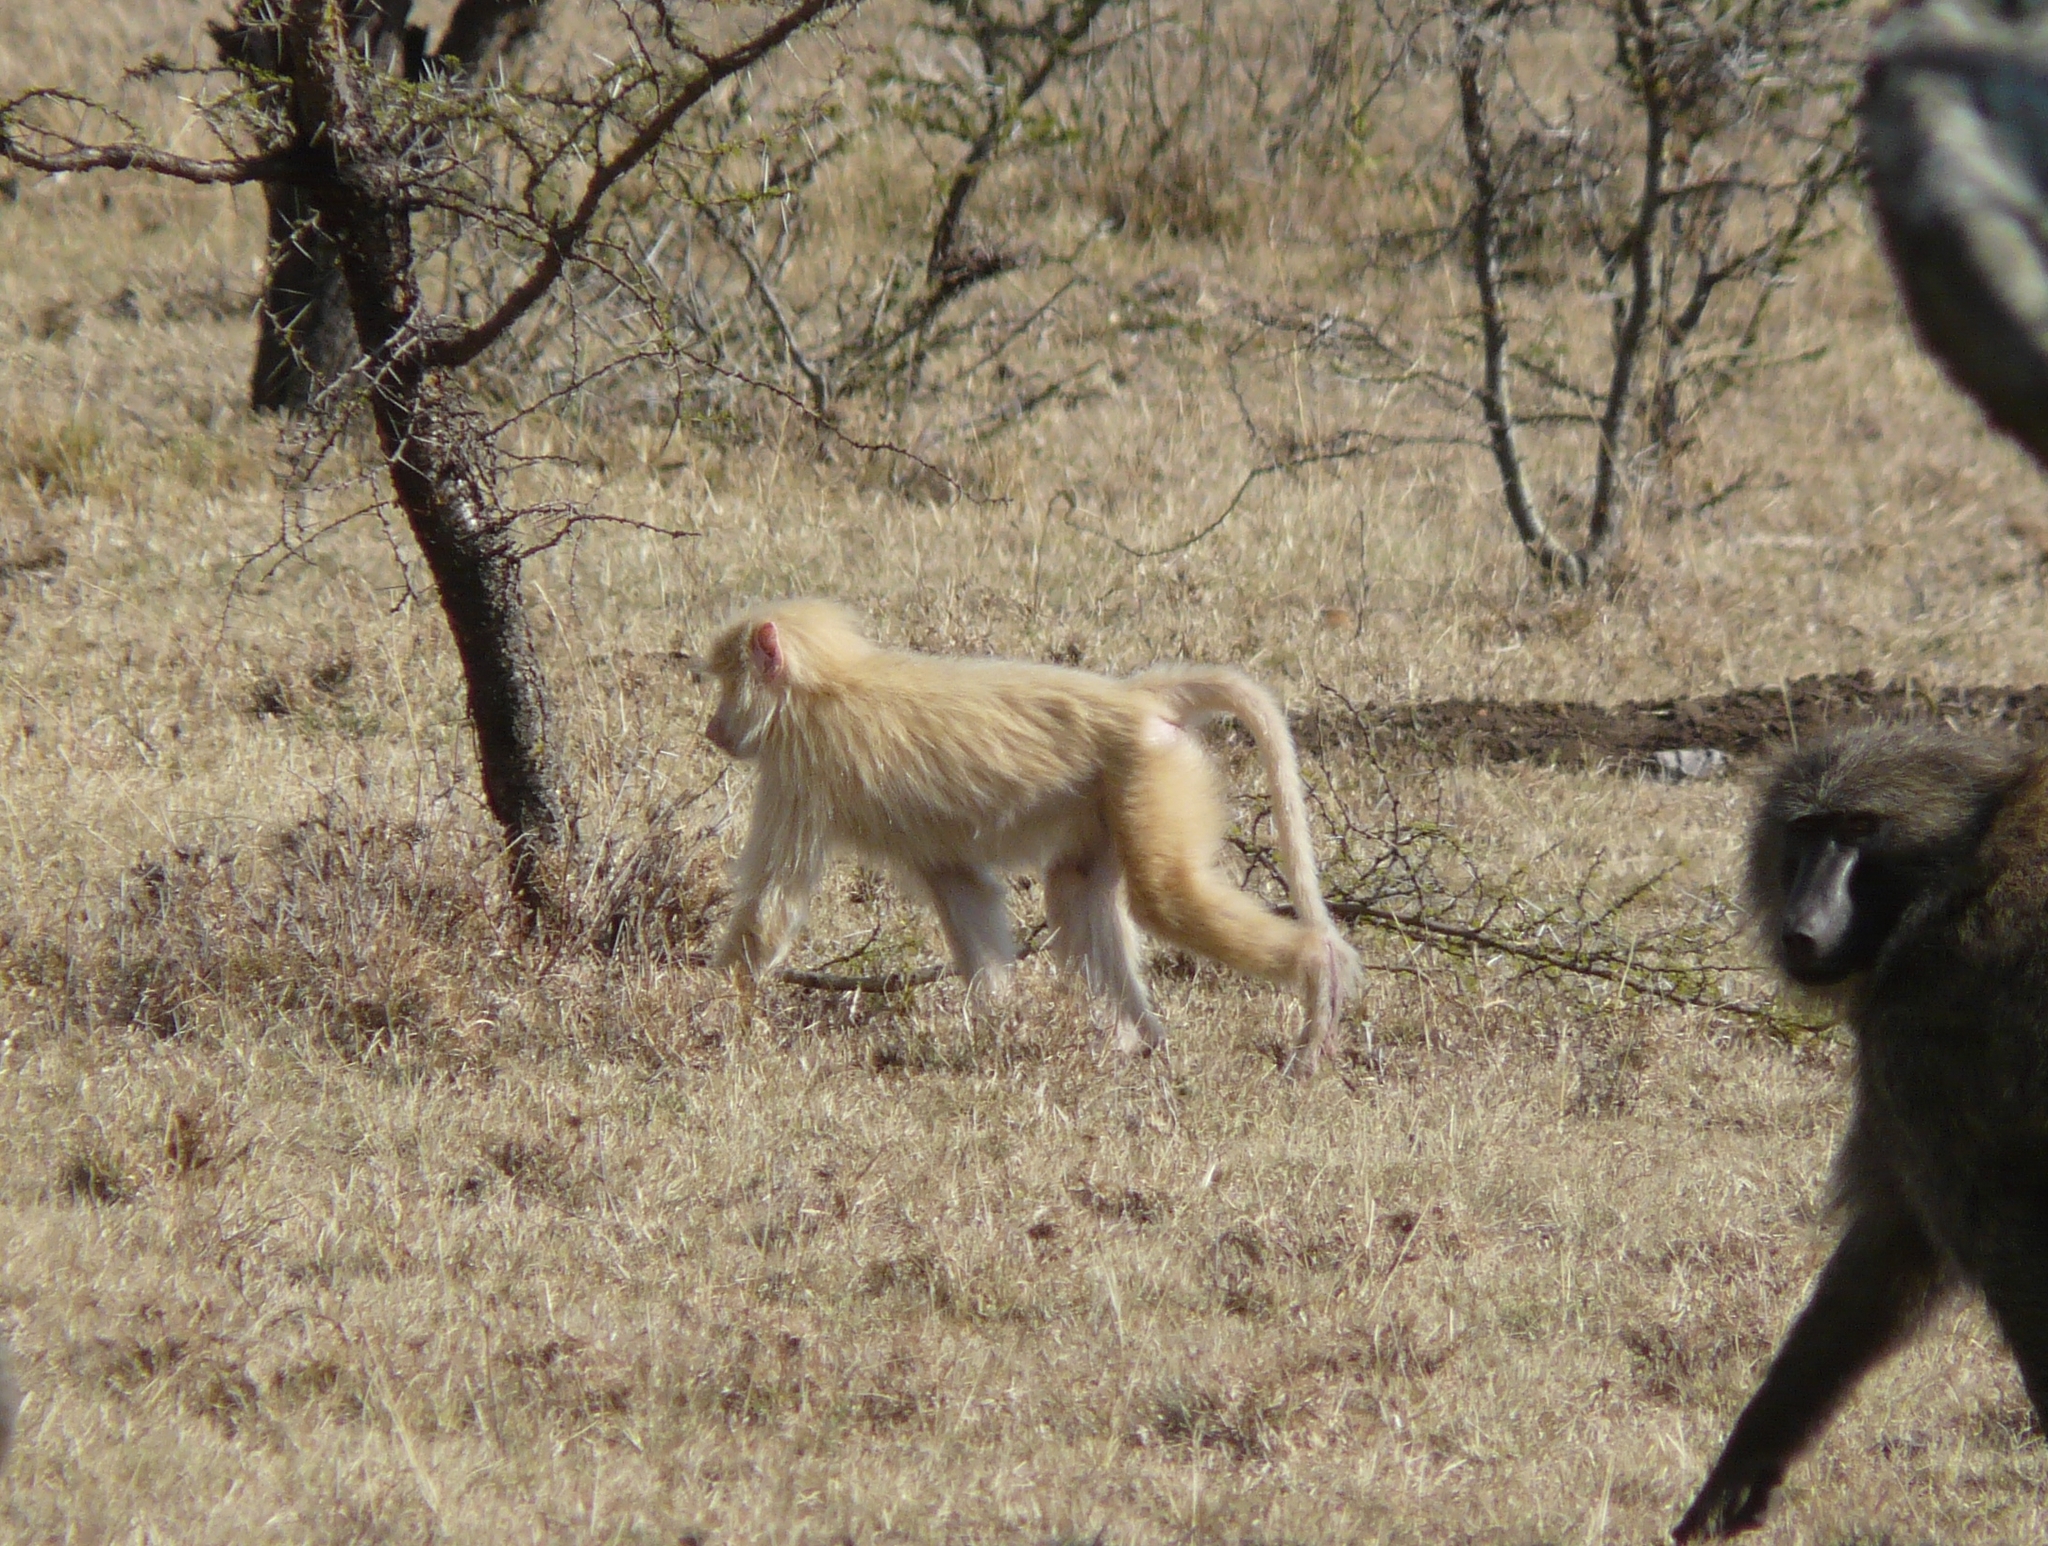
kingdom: Animalia
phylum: Chordata
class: Mammalia
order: Primates
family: Cercopithecidae
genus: Papio
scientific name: Papio anubis
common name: Olive baboon
